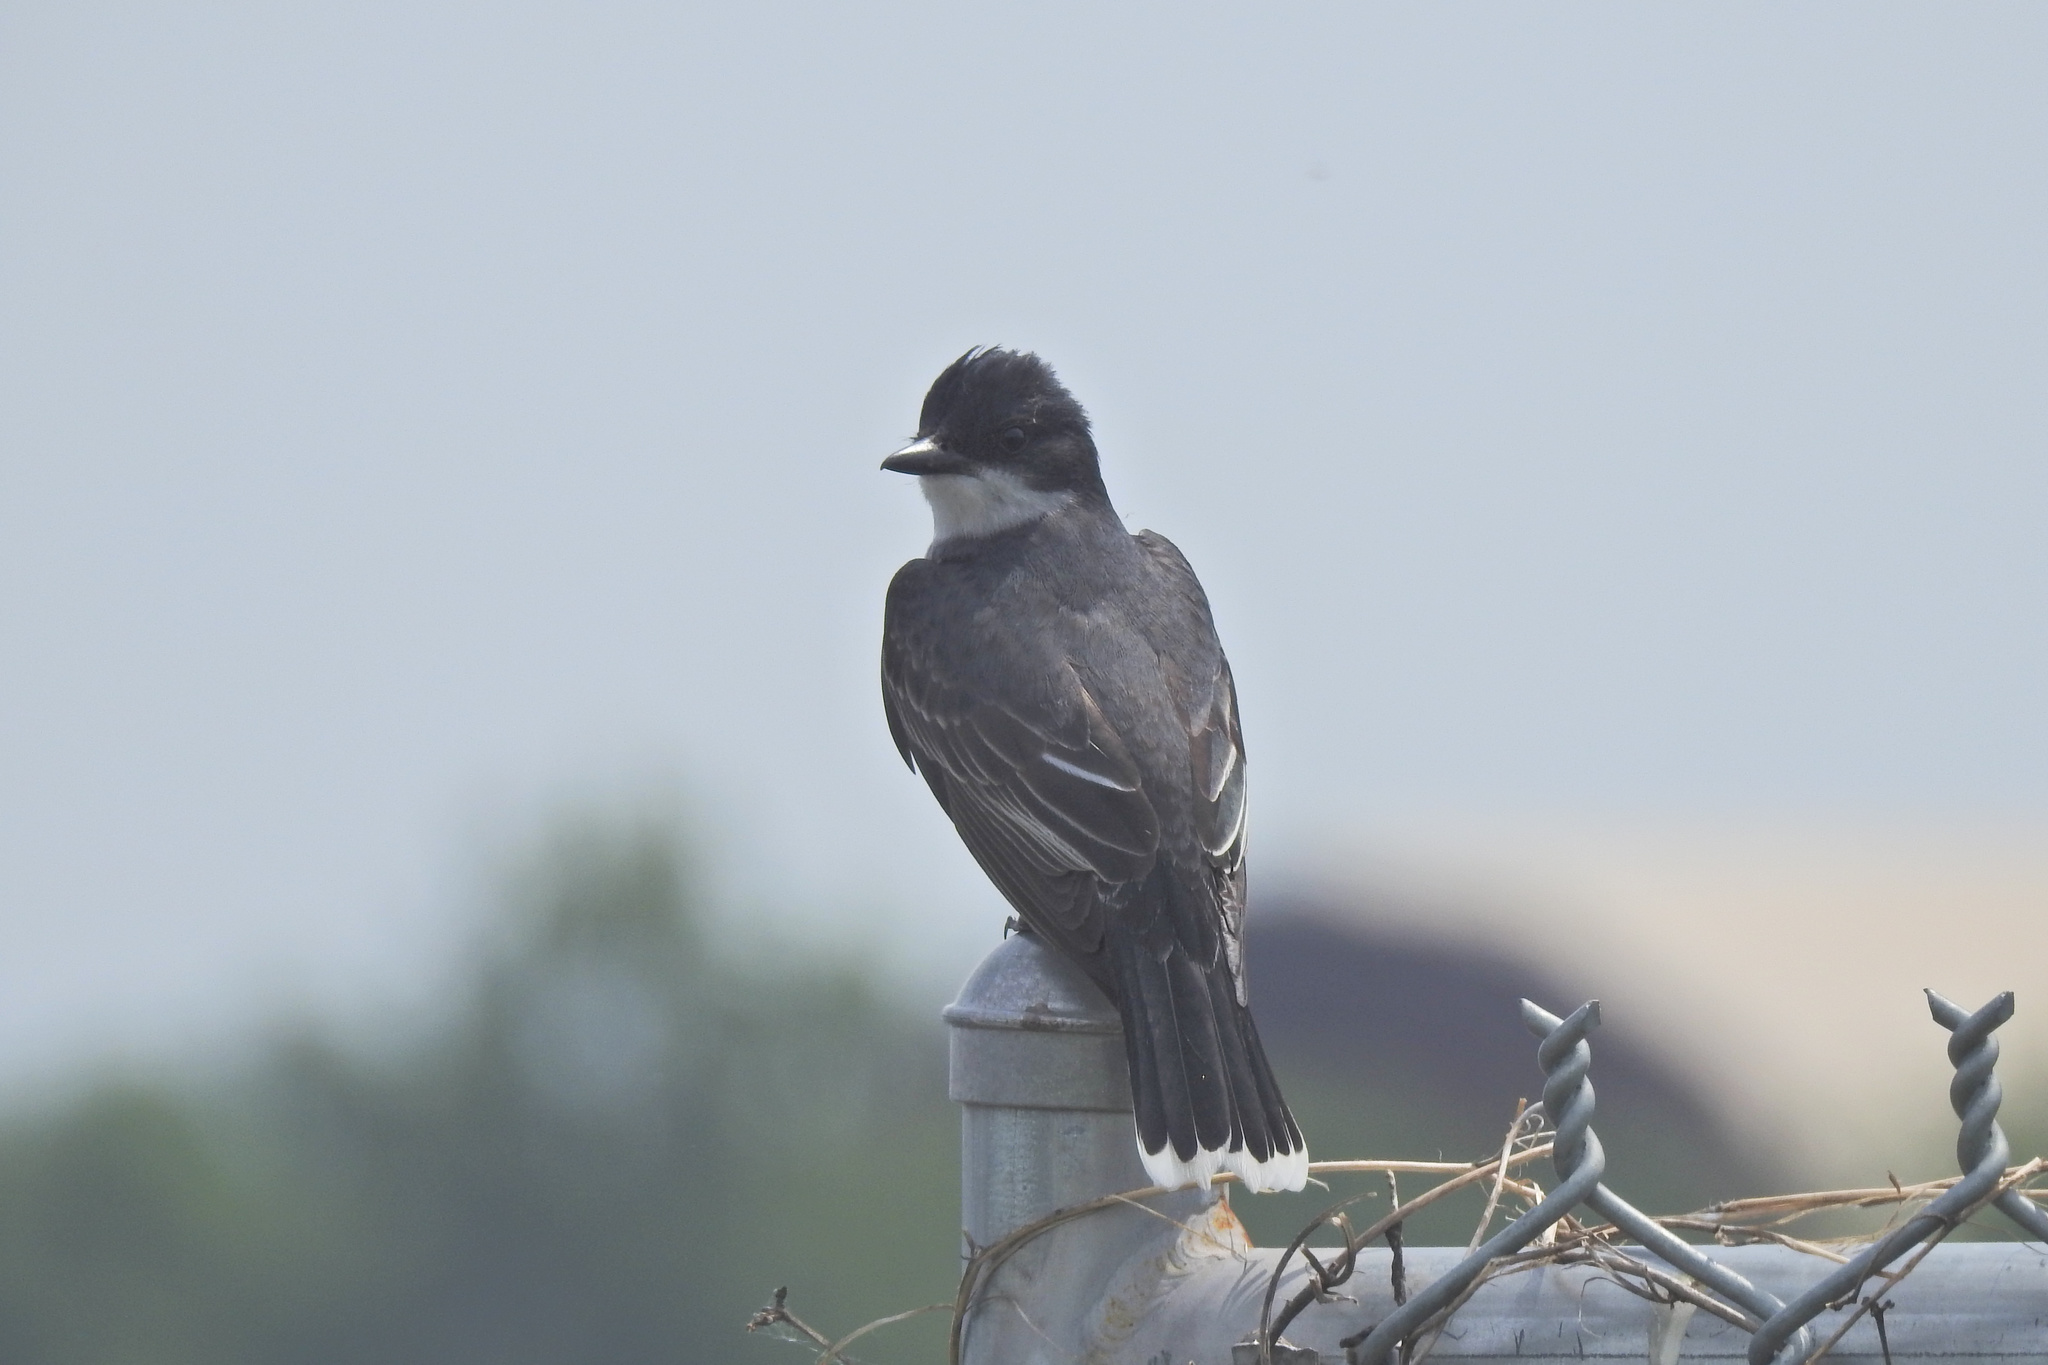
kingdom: Animalia
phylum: Chordata
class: Aves
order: Passeriformes
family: Tyrannidae
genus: Tyrannus
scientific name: Tyrannus tyrannus
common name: Eastern kingbird
